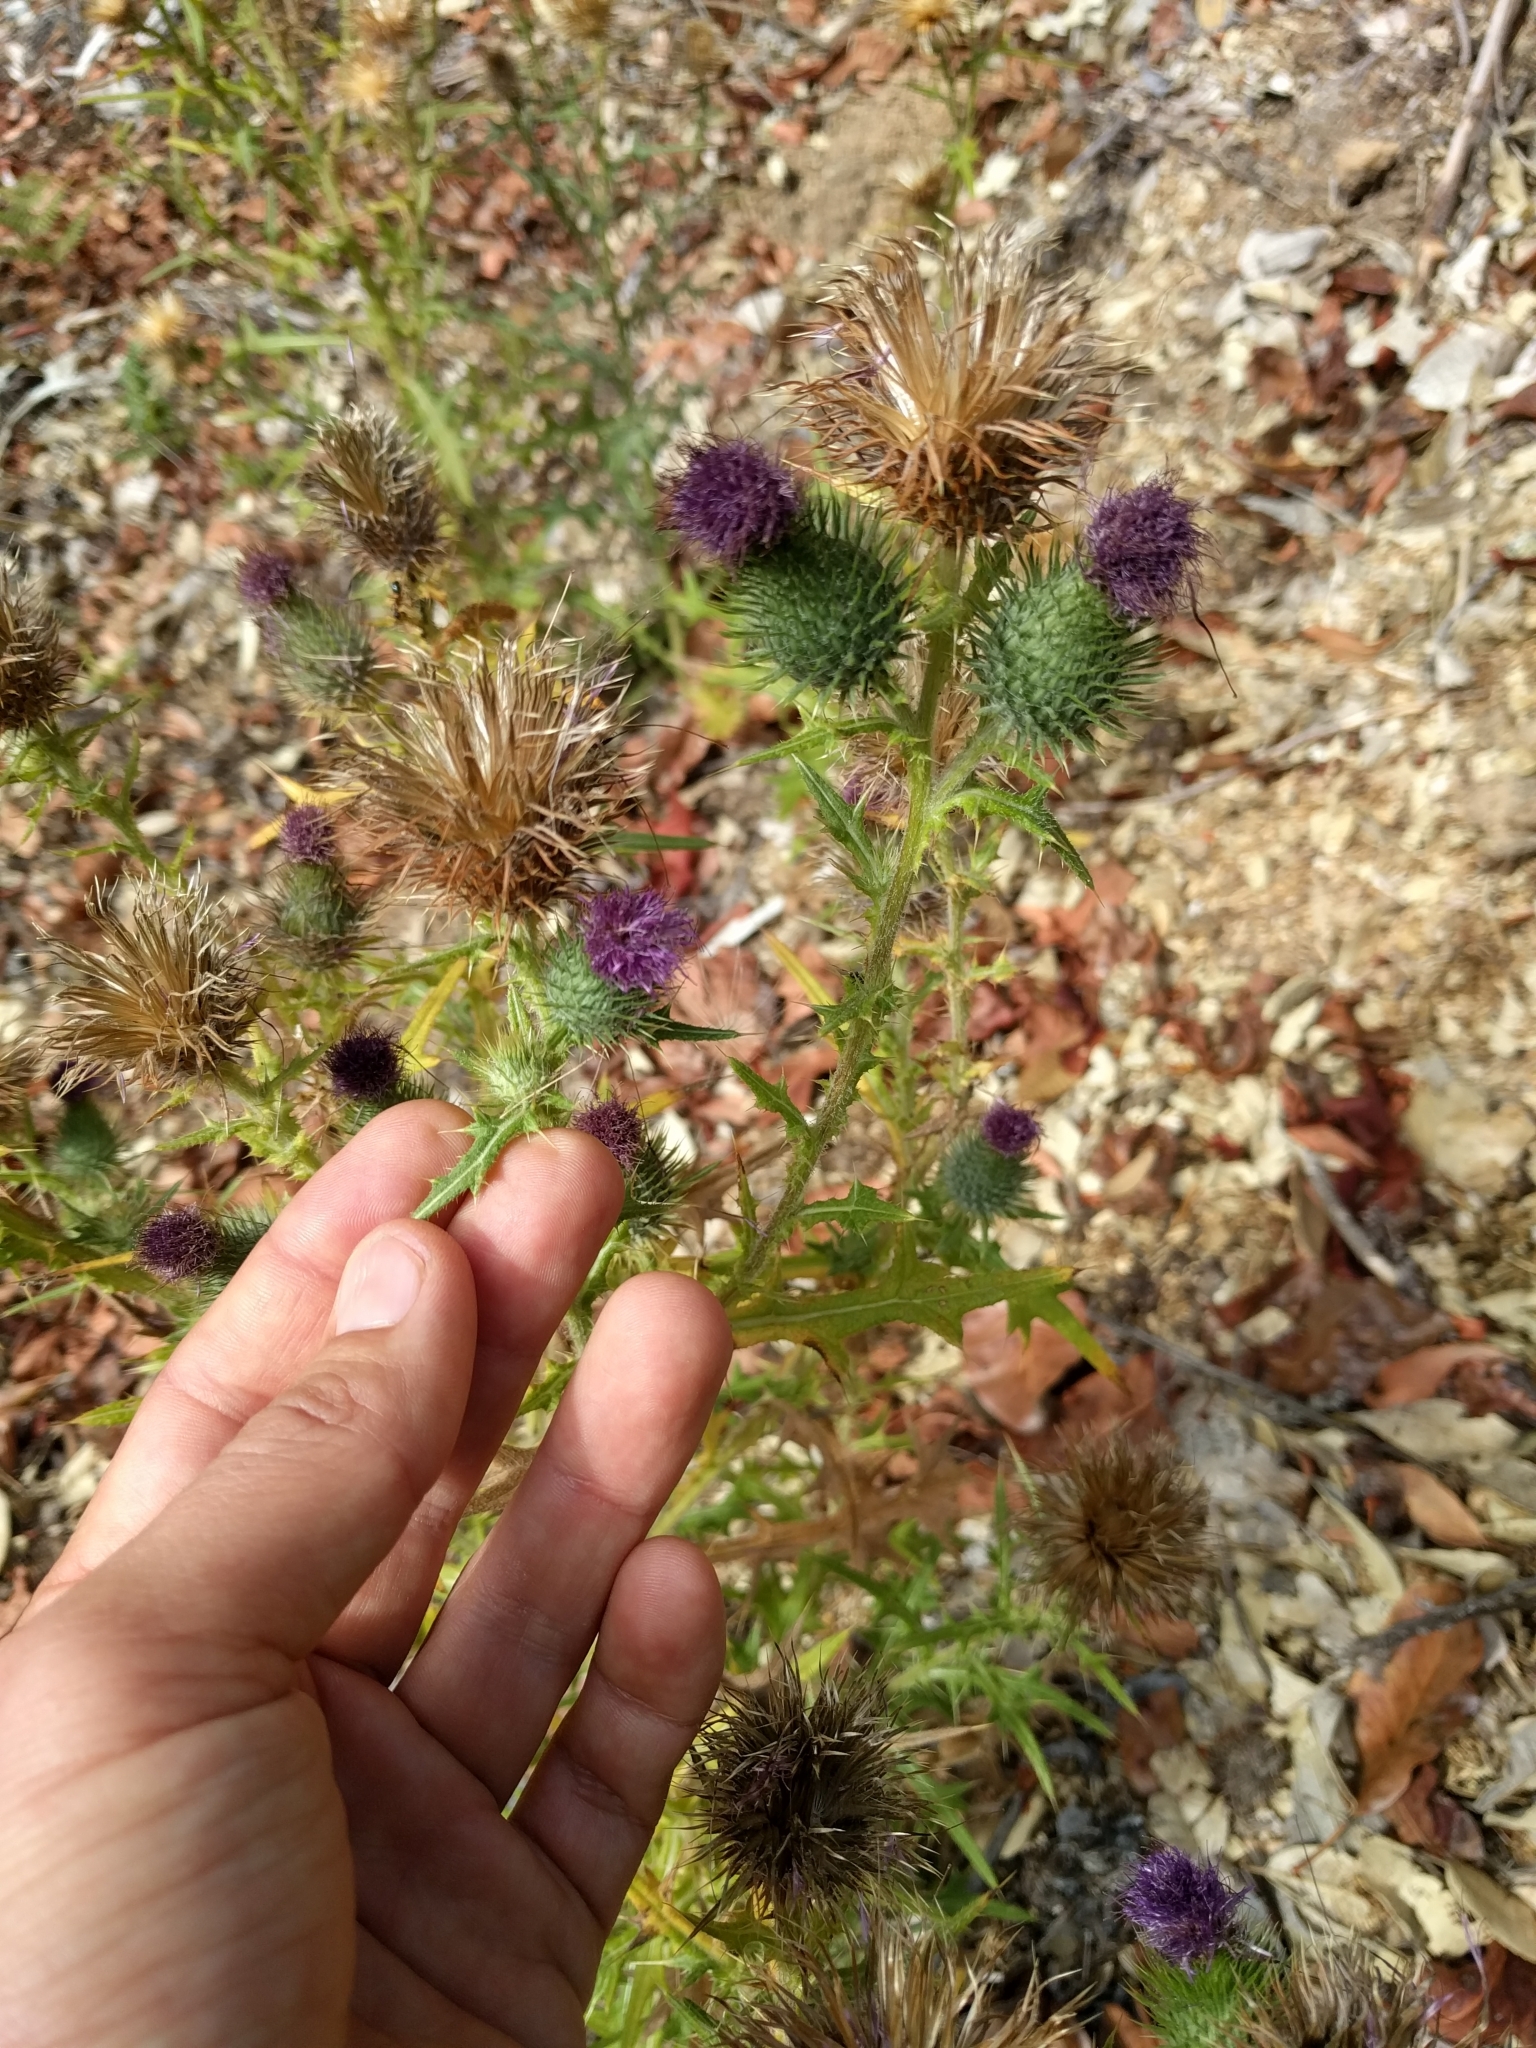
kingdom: Plantae
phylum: Tracheophyta
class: Magnoliopsida
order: Asterales
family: Asteraceae
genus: Cirsium
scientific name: Cirsium vulgare
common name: Bull thistle
